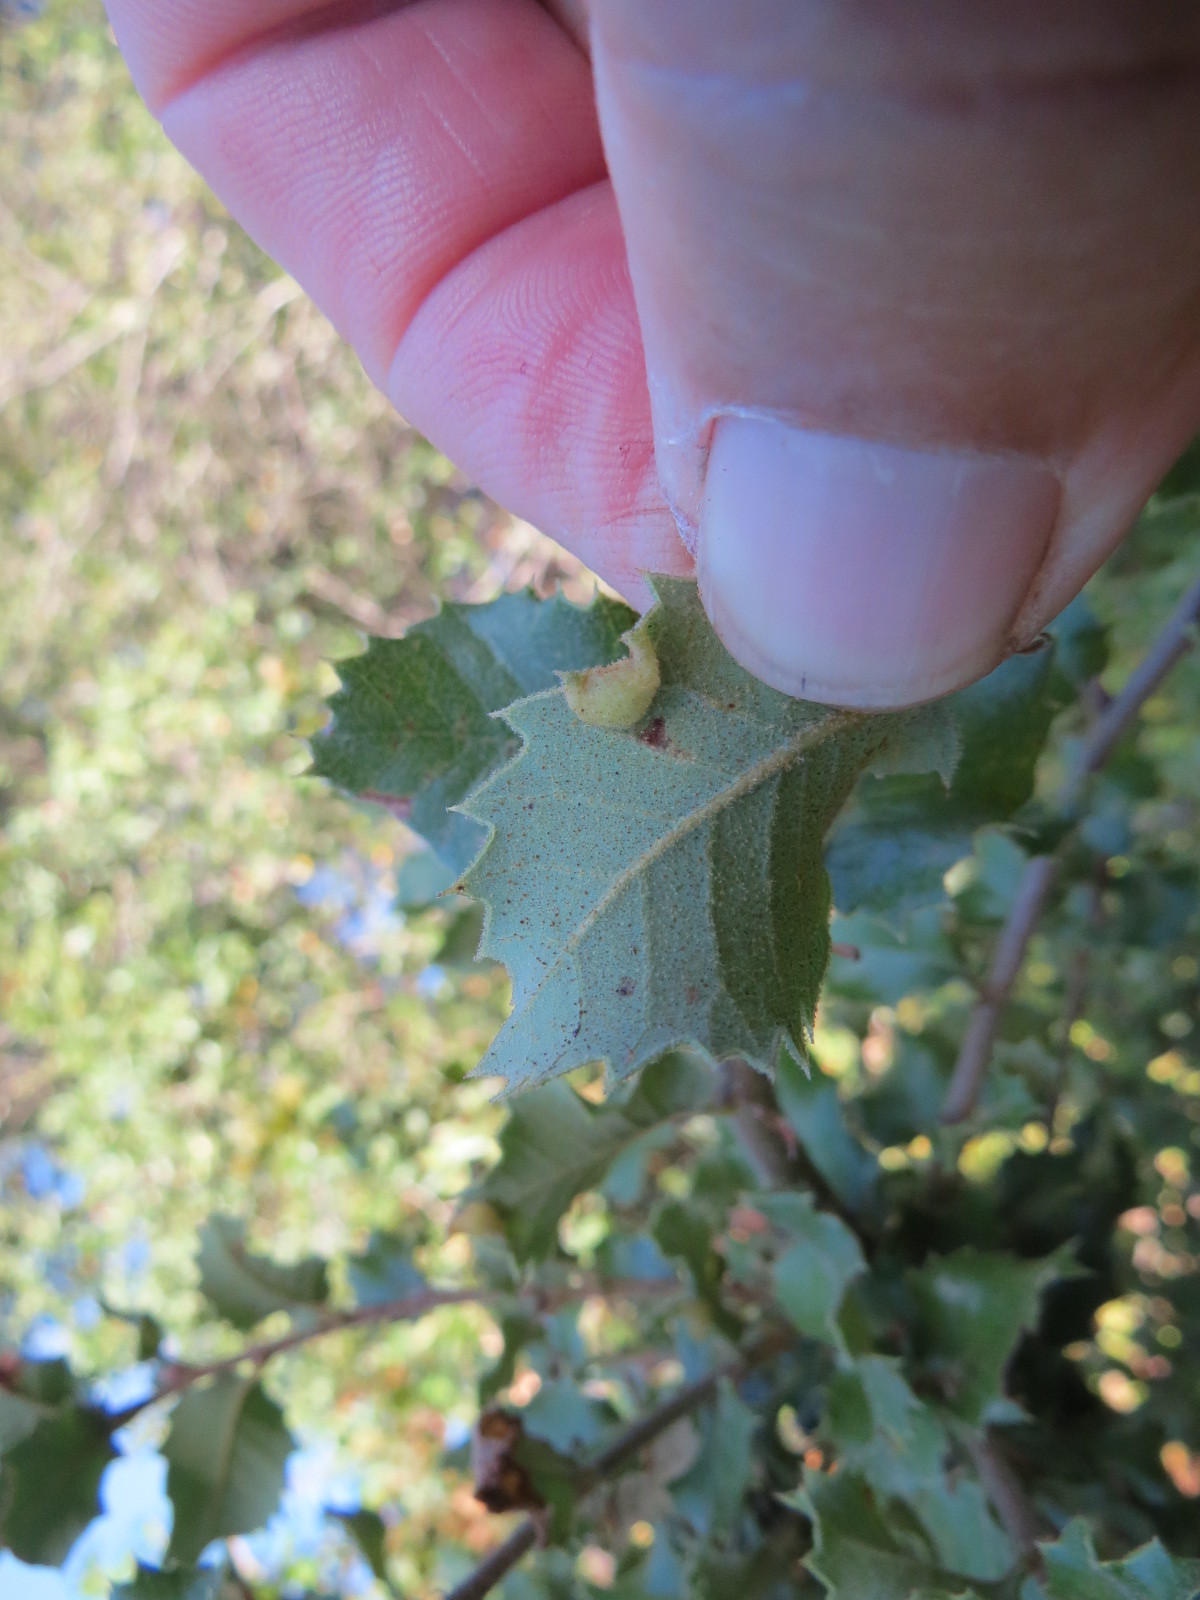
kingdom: Animalia
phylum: Arthropoda
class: Insecta
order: Diptera
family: Cecidomyiidae
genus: Dasineura
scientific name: Dasineura silvestrii
